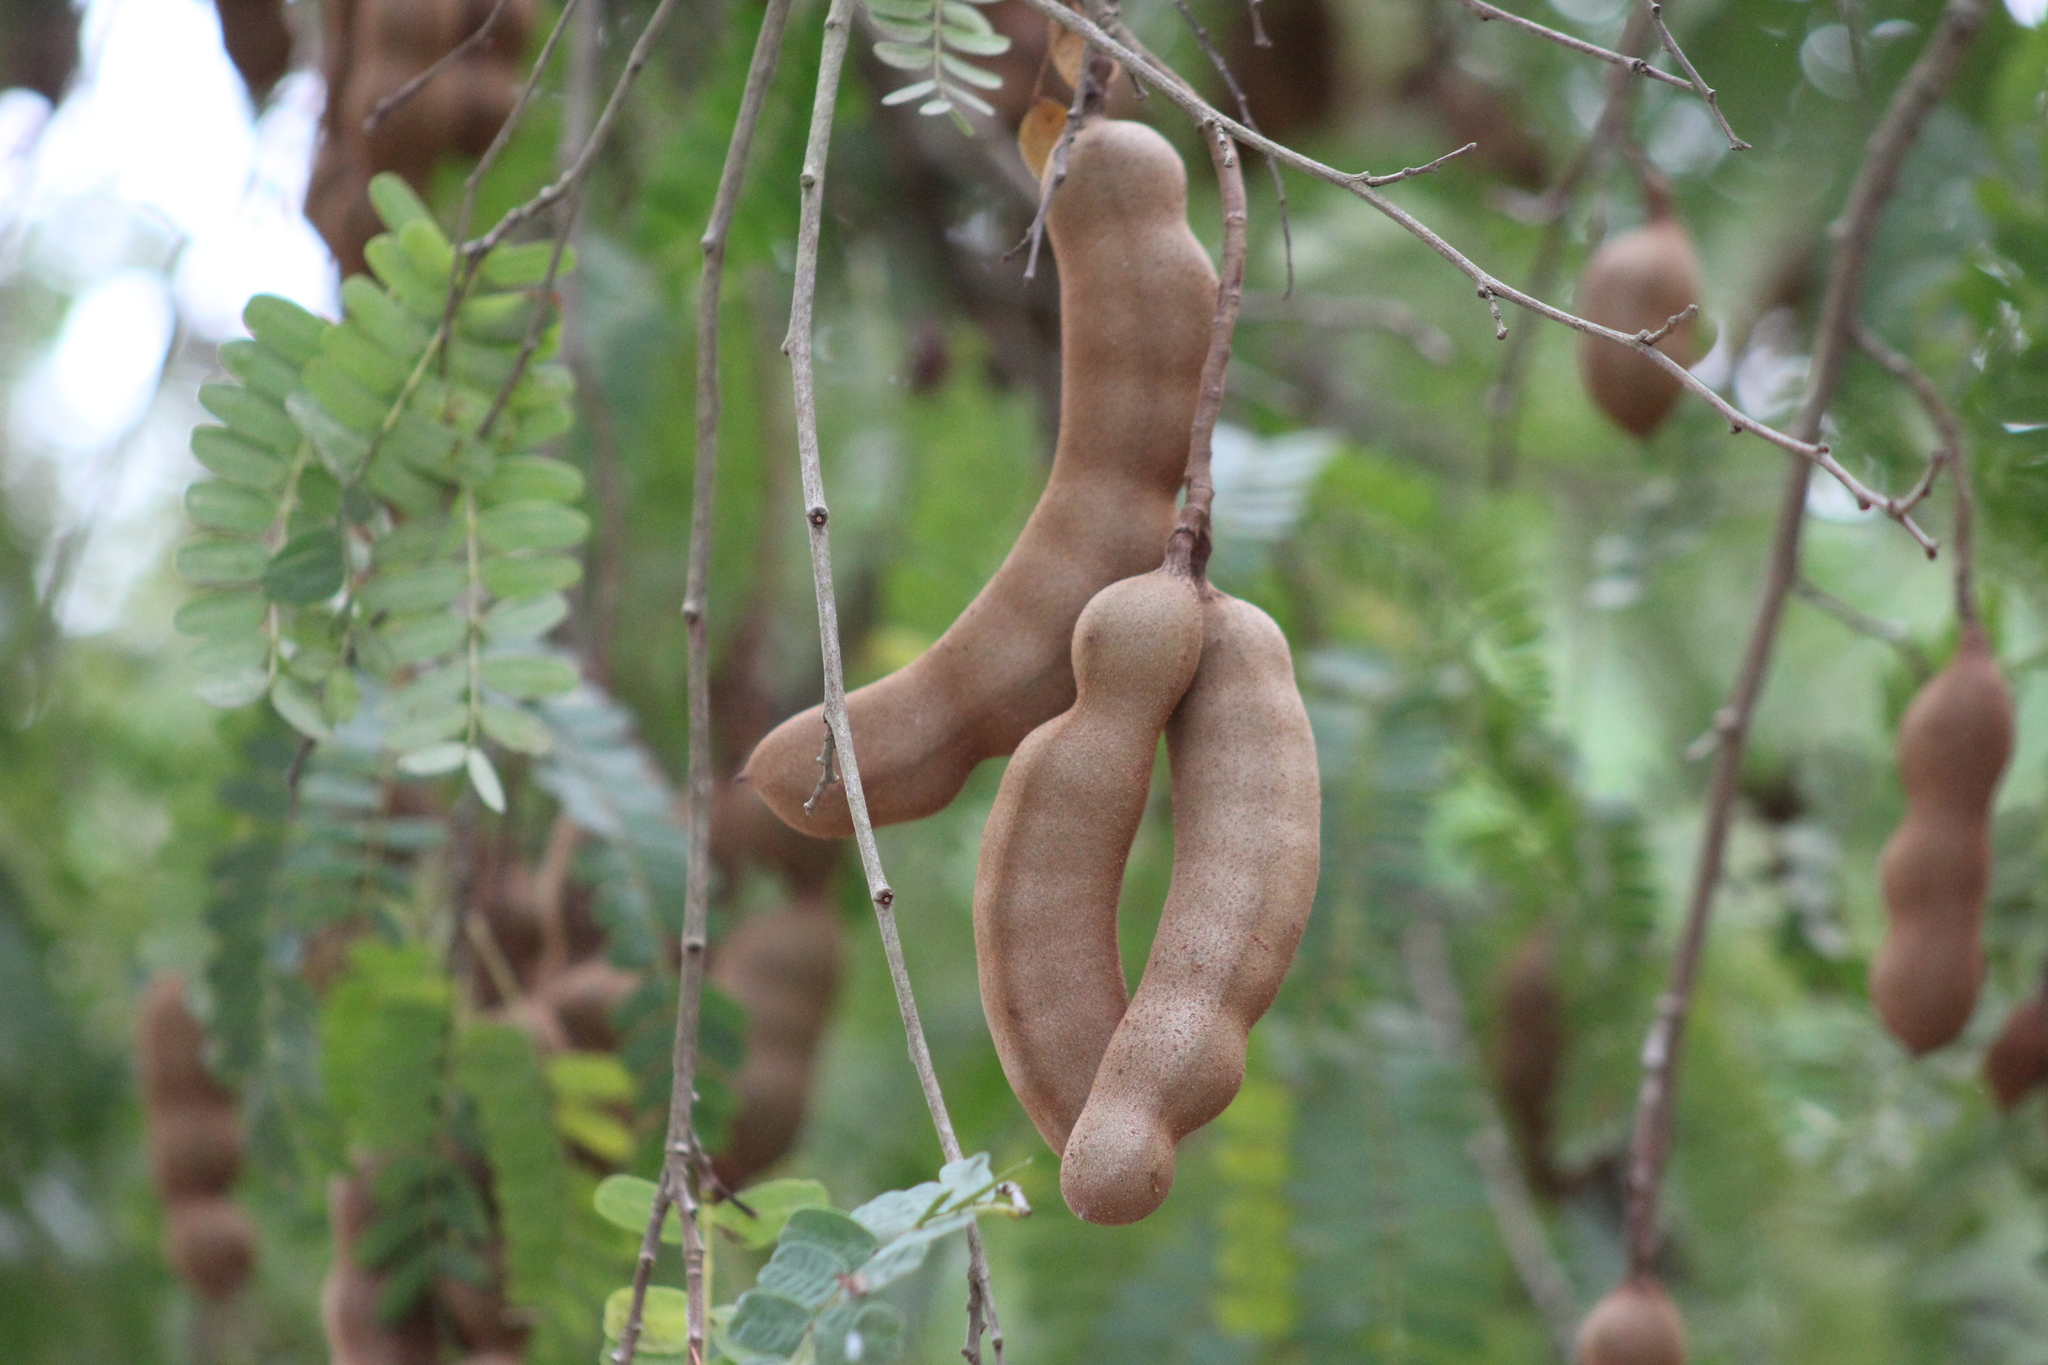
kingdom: Plantae
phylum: Tracheophyta
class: Magnoliopsida
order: Fabales
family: Fabaceae
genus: Tamarindus
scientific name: Tamarindus indica
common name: Tamarind
